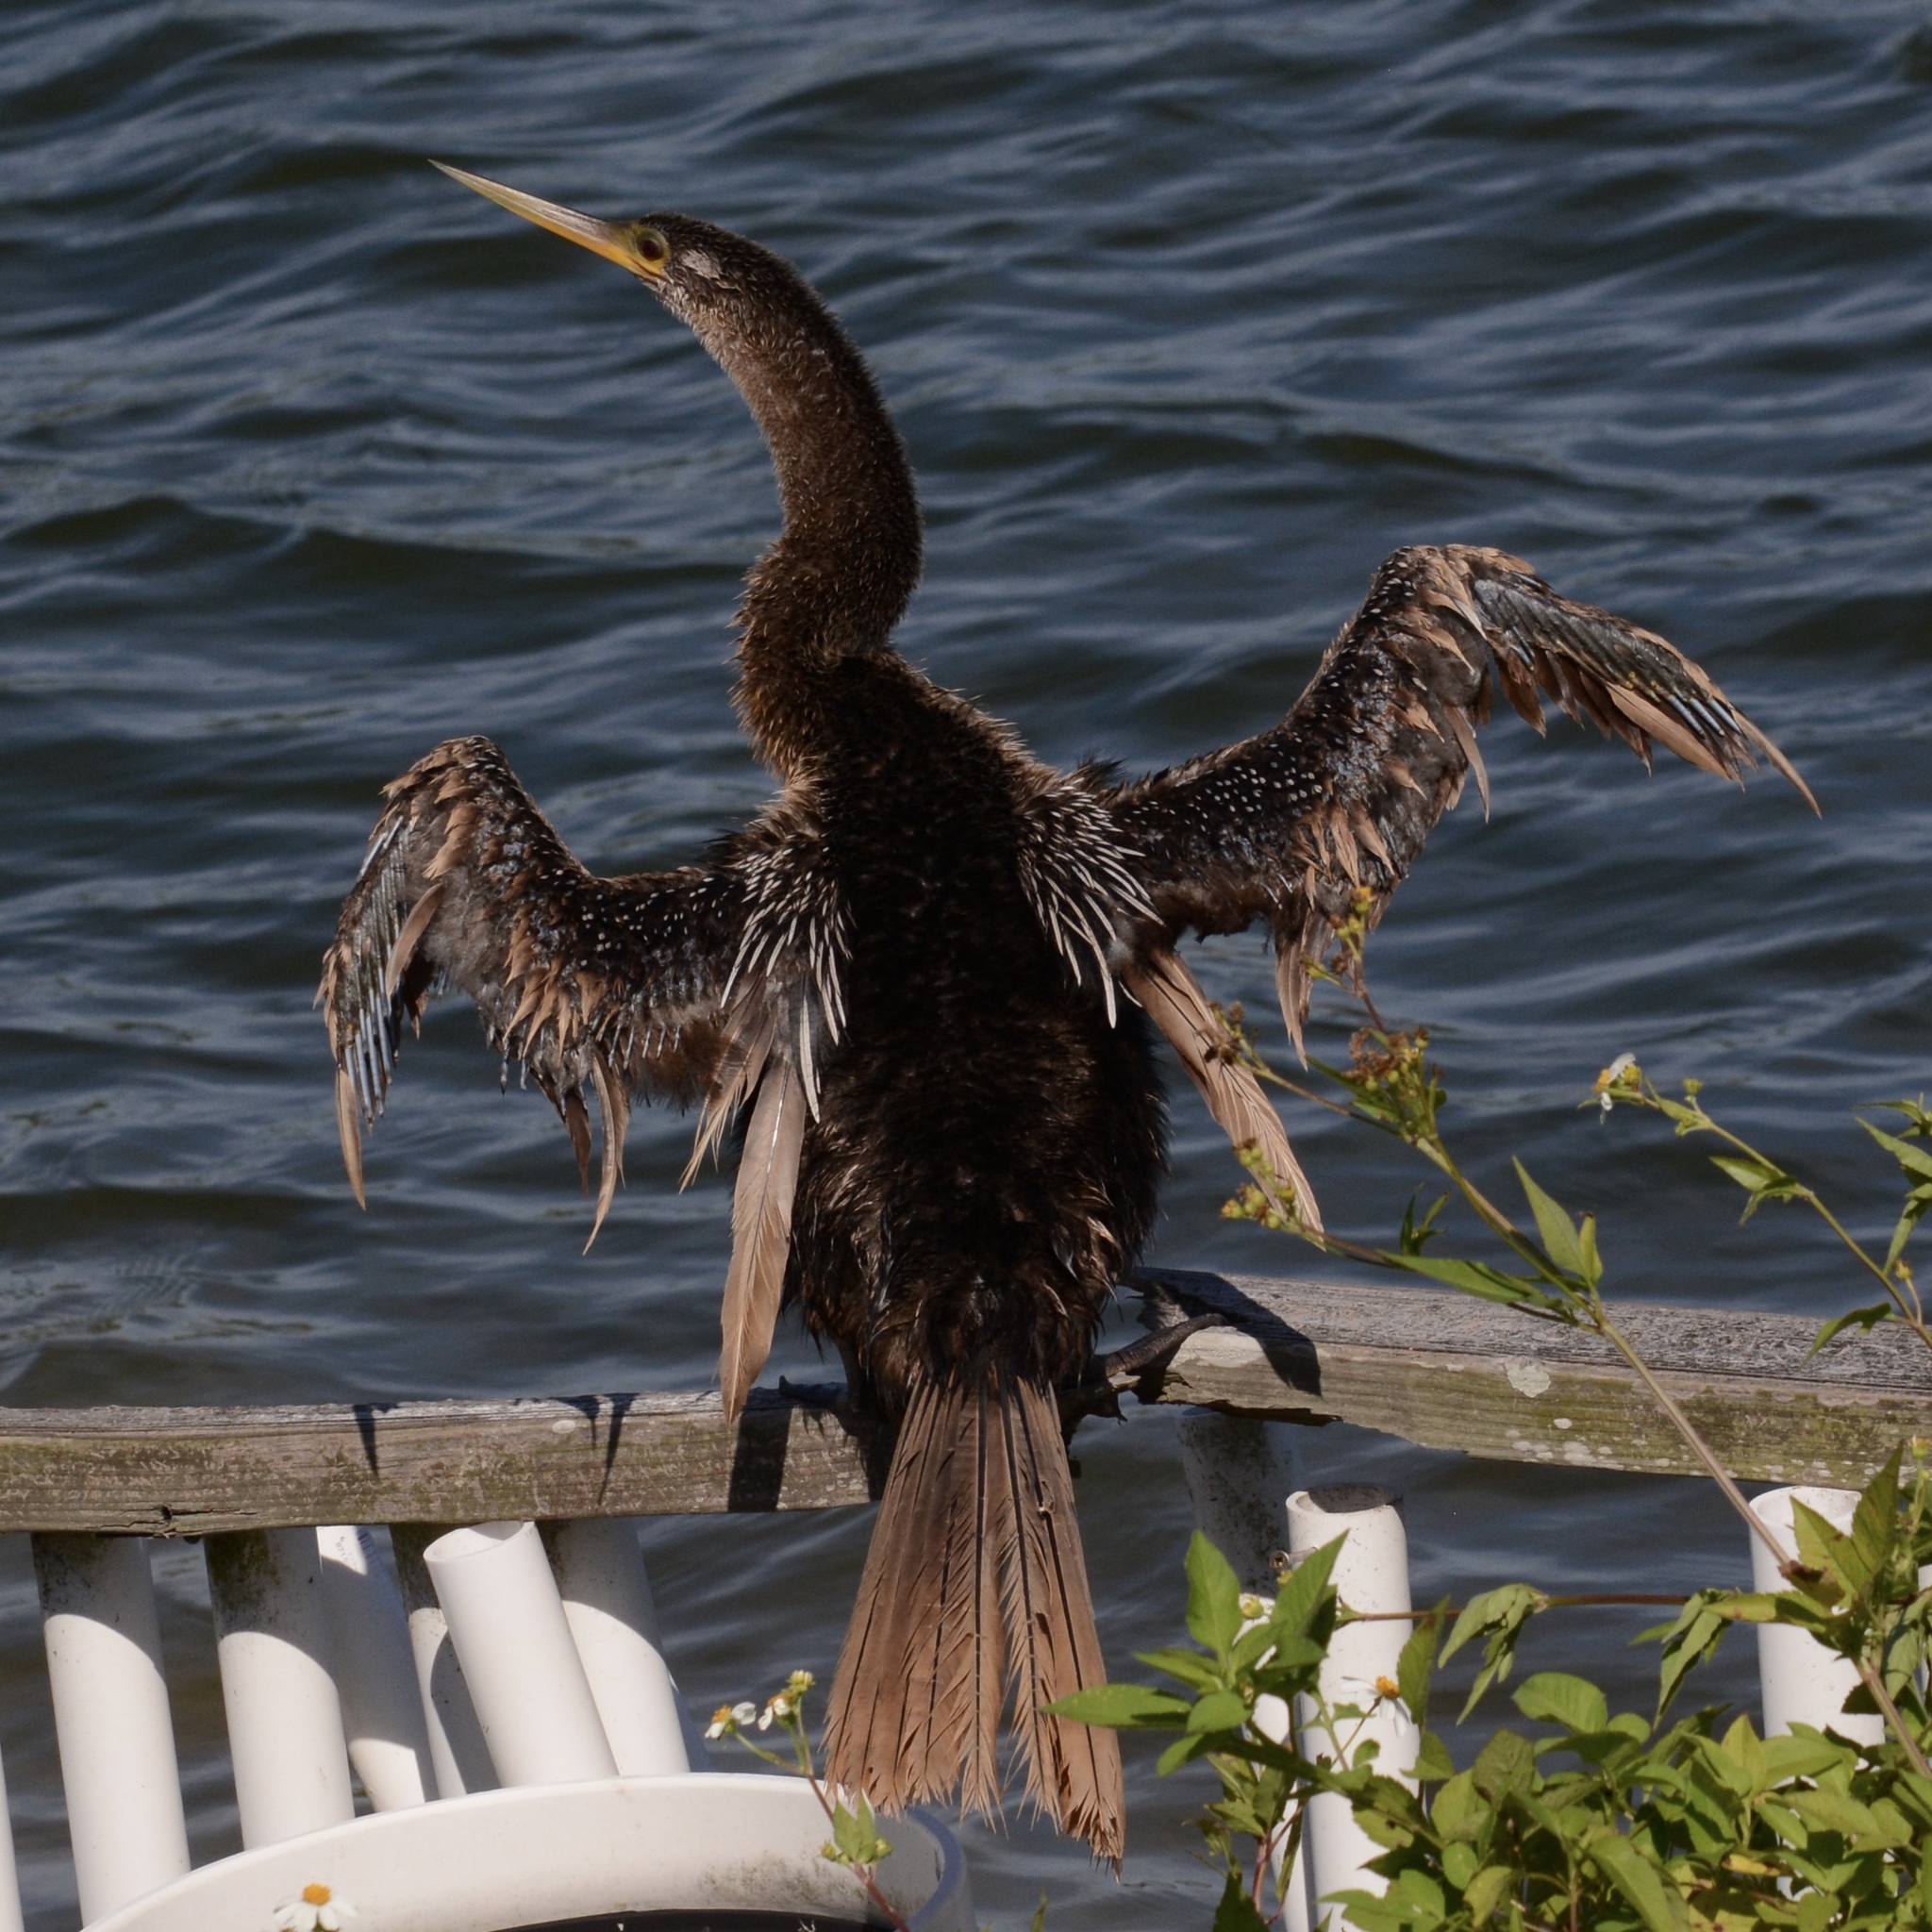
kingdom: Animalia
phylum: Chordata
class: Aves
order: Suliformes
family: Anhingidae
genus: Anhinga
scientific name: Anhinga anhinga
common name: Anhinga
